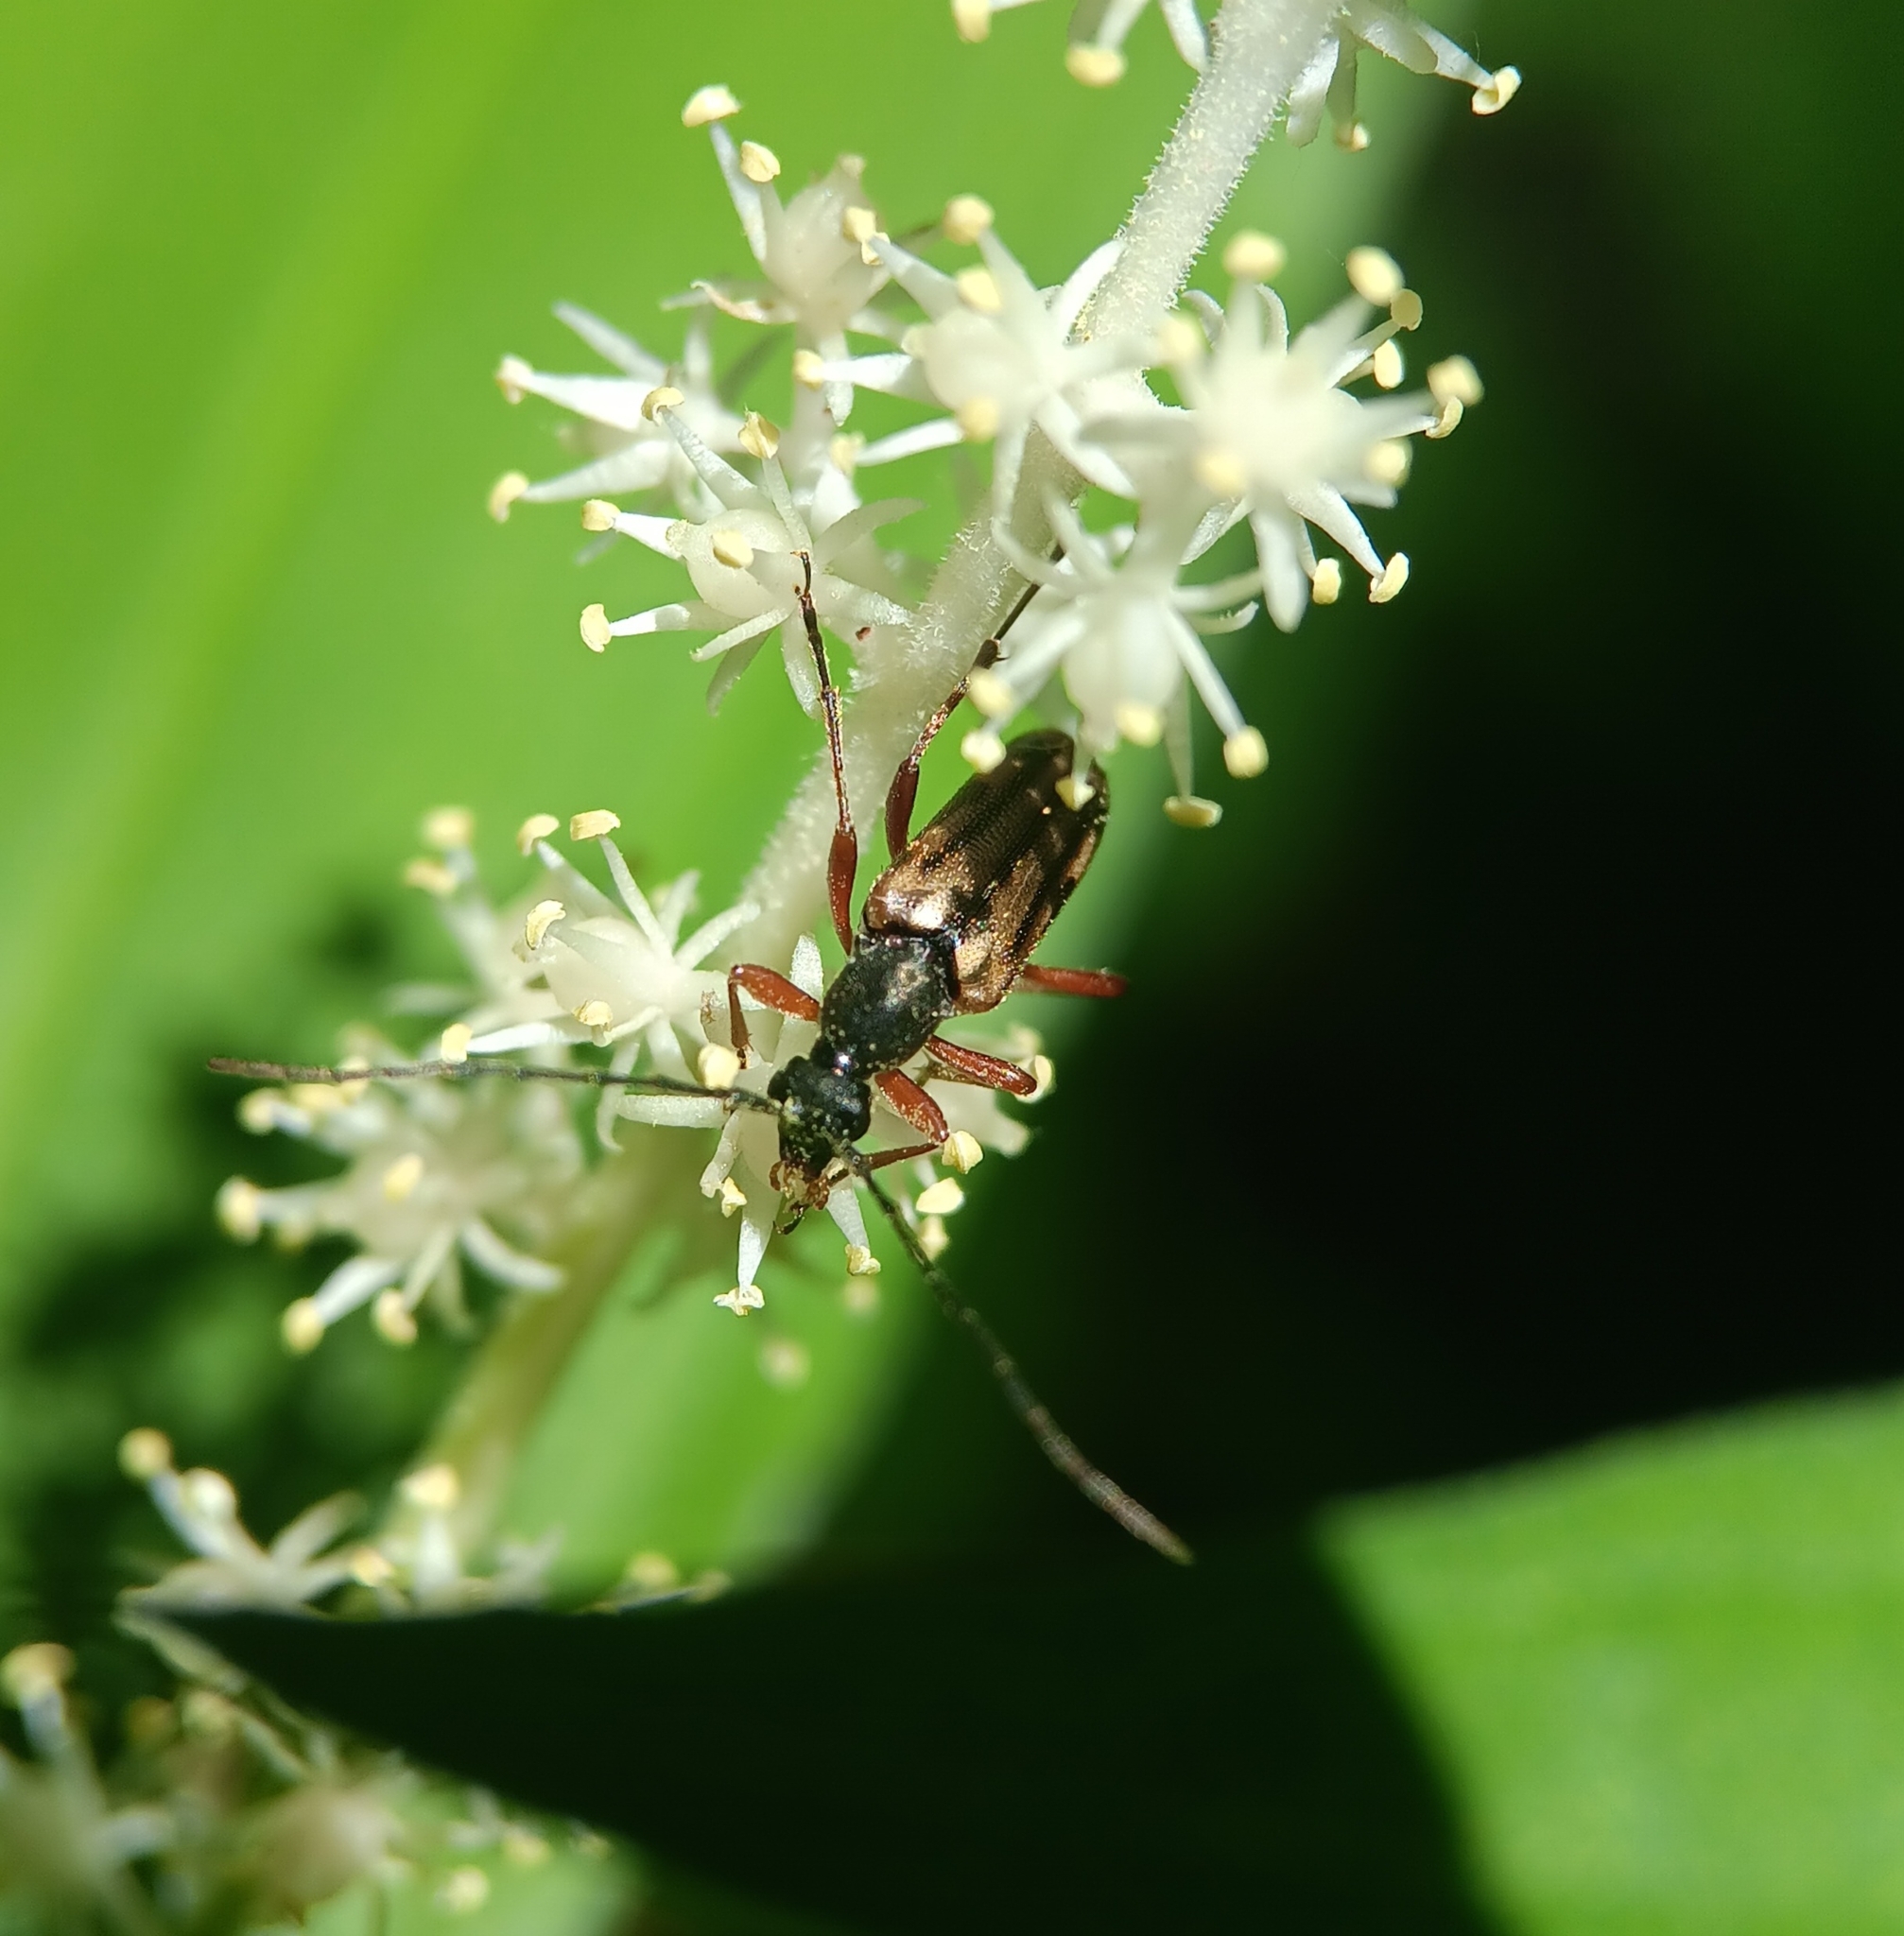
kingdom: Animalia
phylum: Arthropoda
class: Insecta
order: Coleoptera
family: Cerambycidae
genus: Analeptura
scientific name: Analeptura lineola
